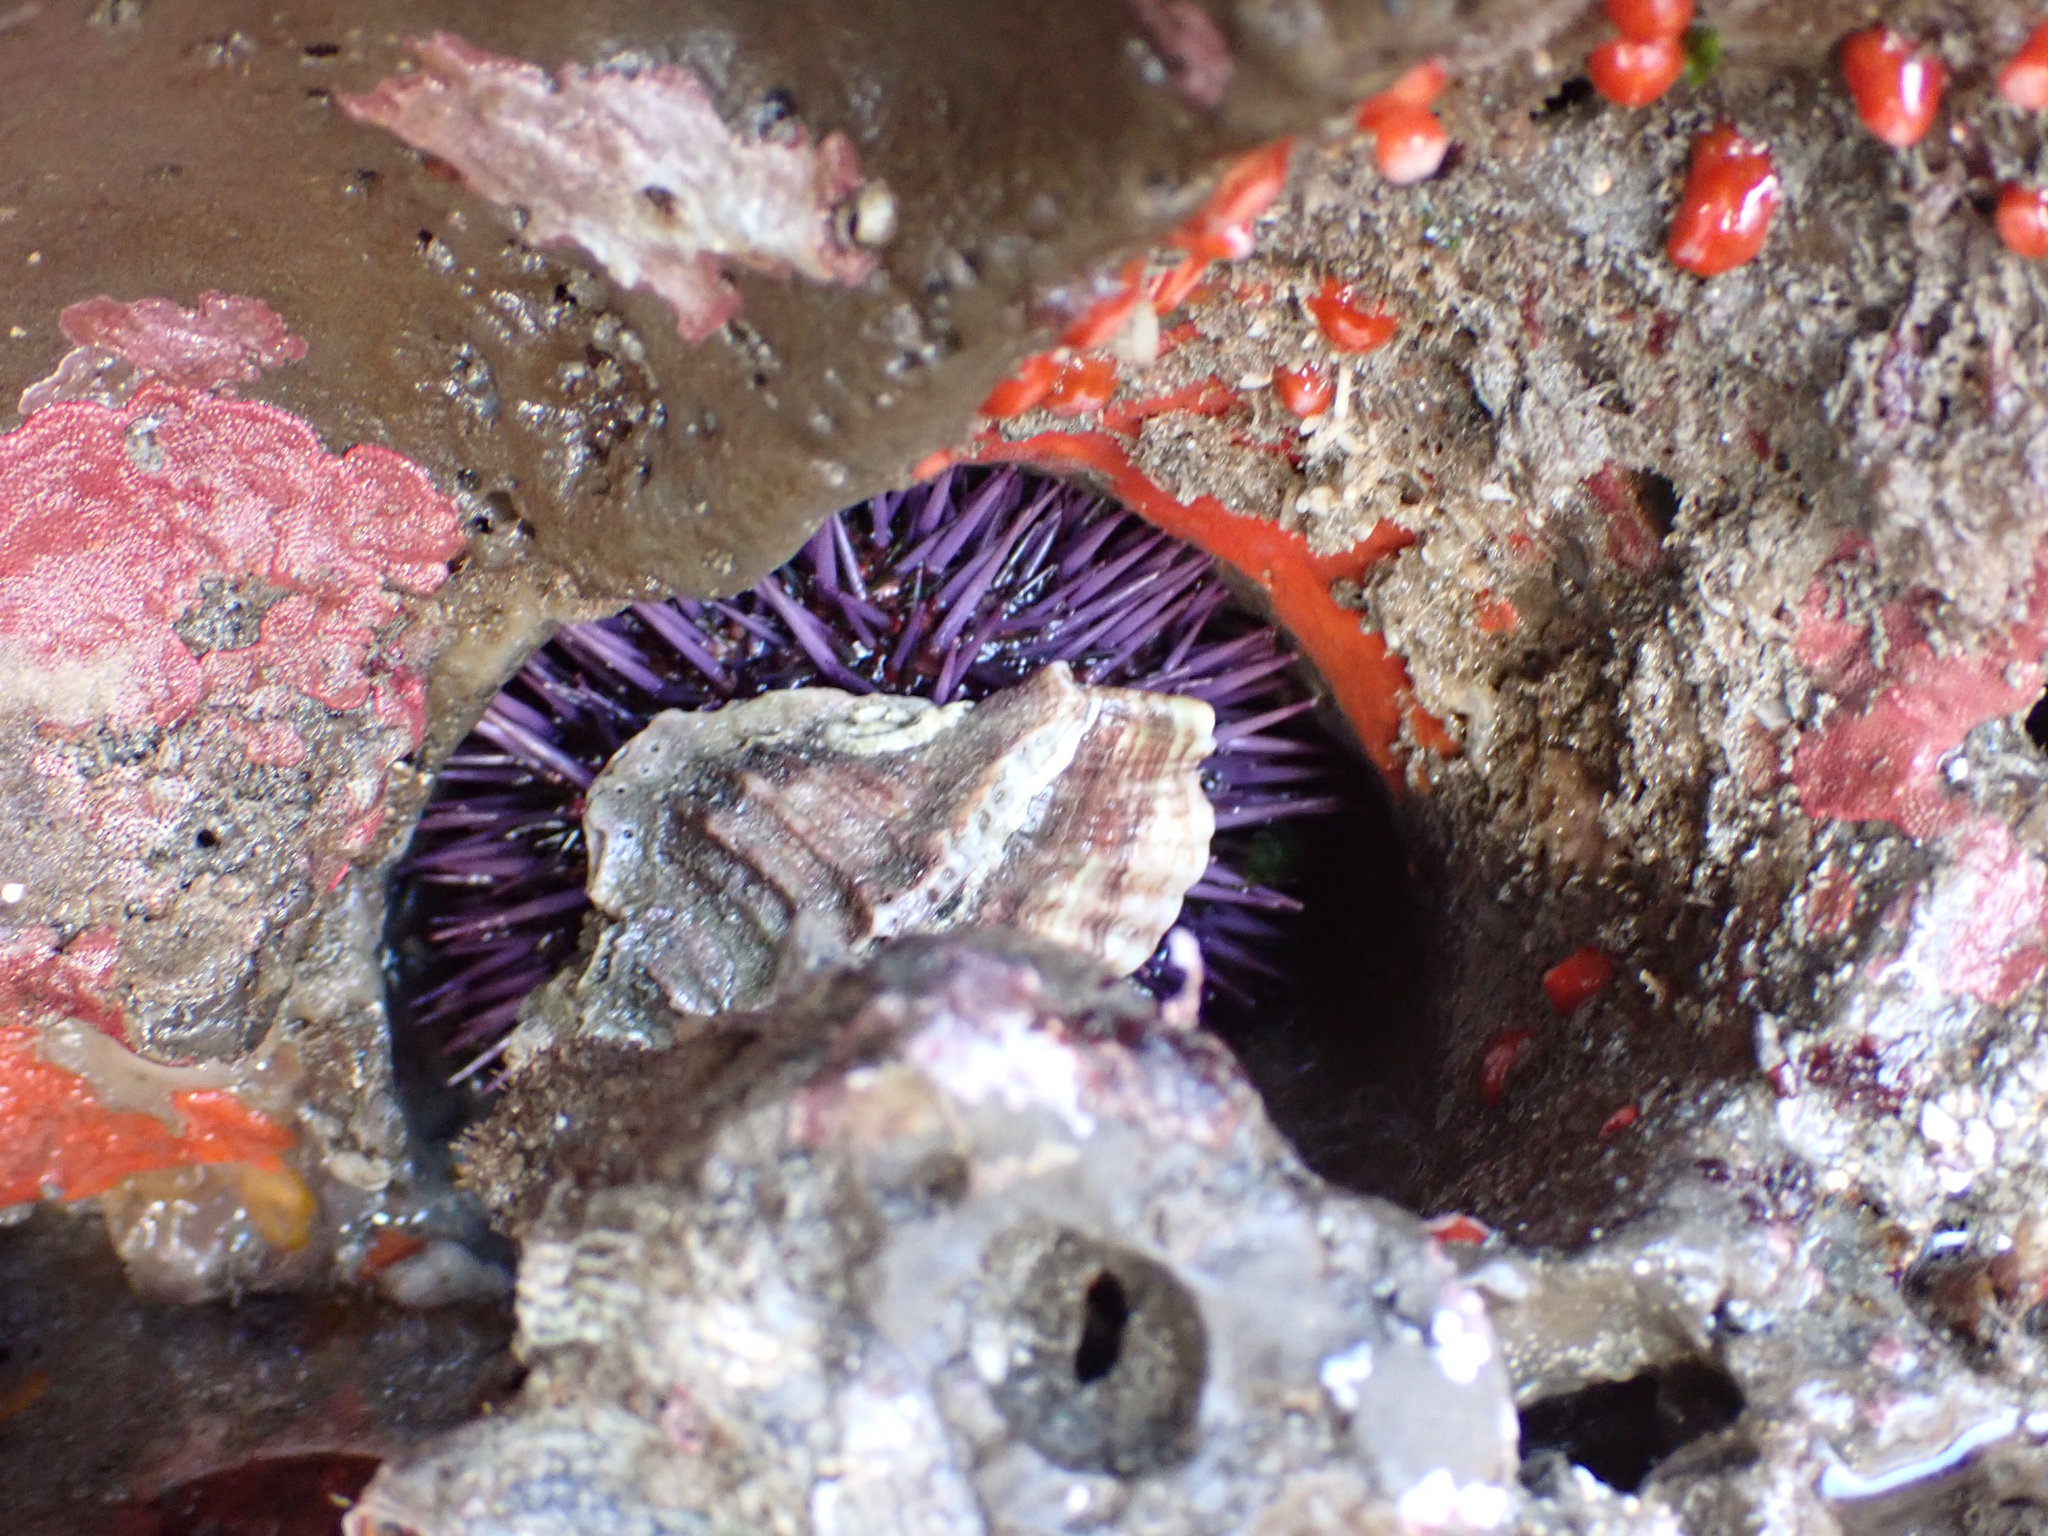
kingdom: Animalia
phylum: Echinodermata
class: Echinoidea
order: Camarodonta
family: Strongylocentrotidae
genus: Strongylocentrotus
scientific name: Strongylocentrotus purpuratus
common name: Purple sea urchin
